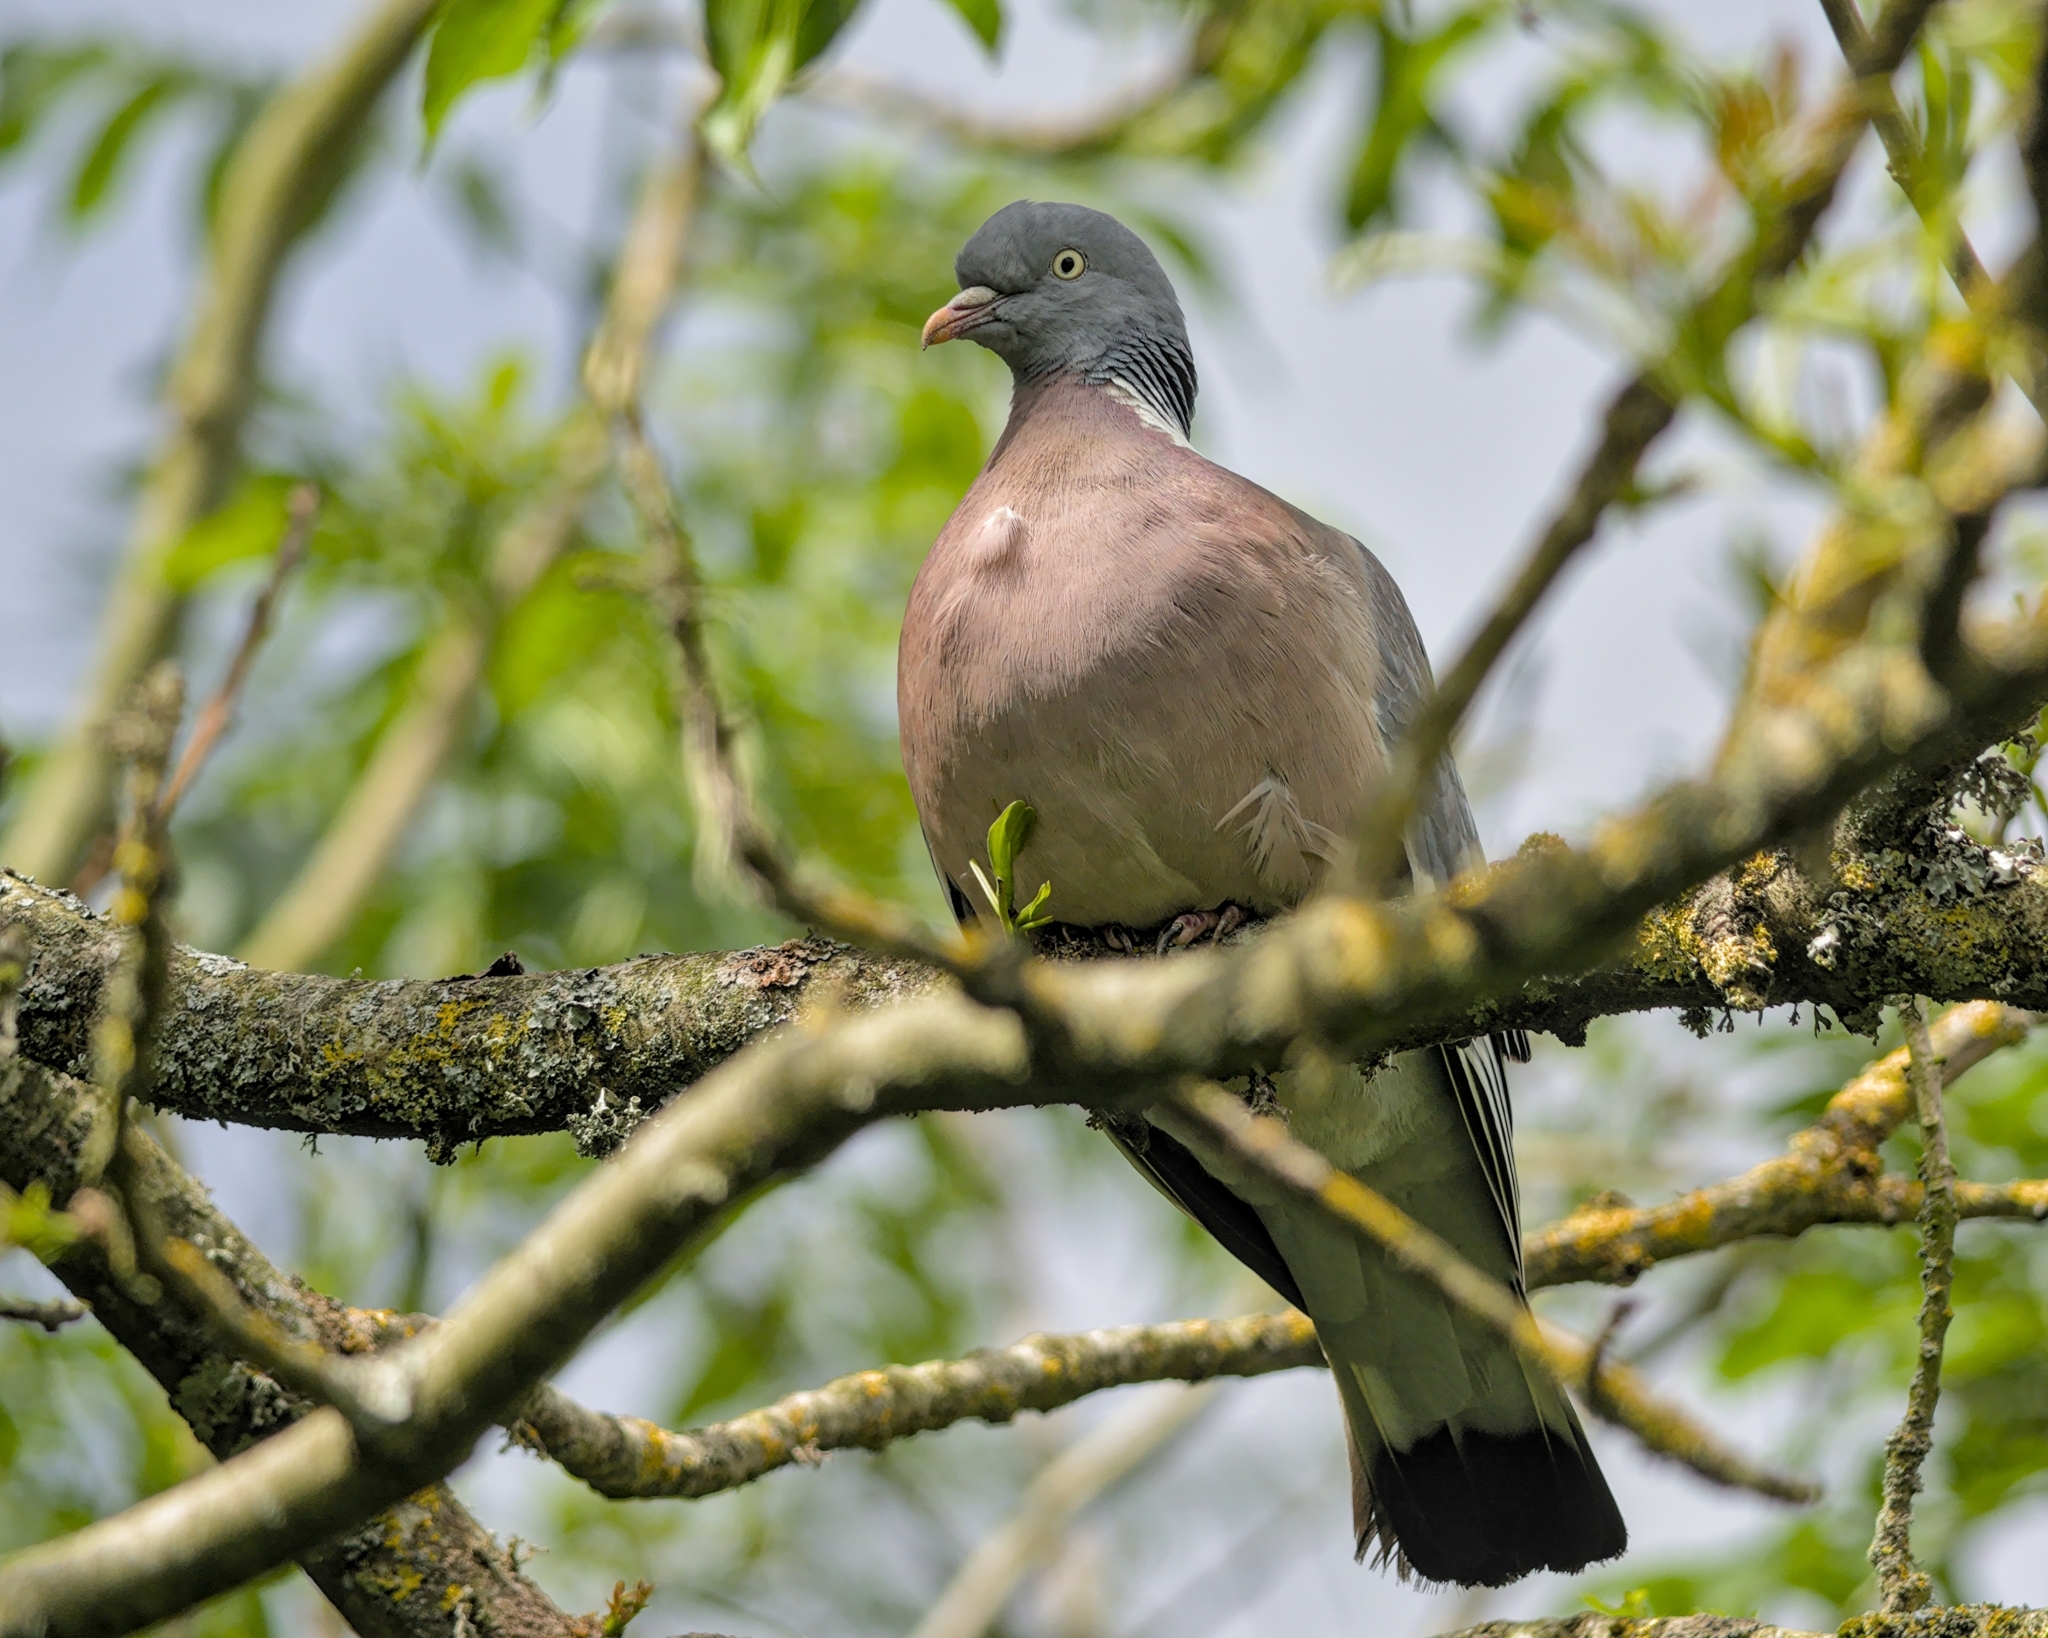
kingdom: Animalia
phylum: Chordata
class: Aves
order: Columbiformes
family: Columbidae
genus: Columba
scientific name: Columba palumbus
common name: Common wood pigeon
